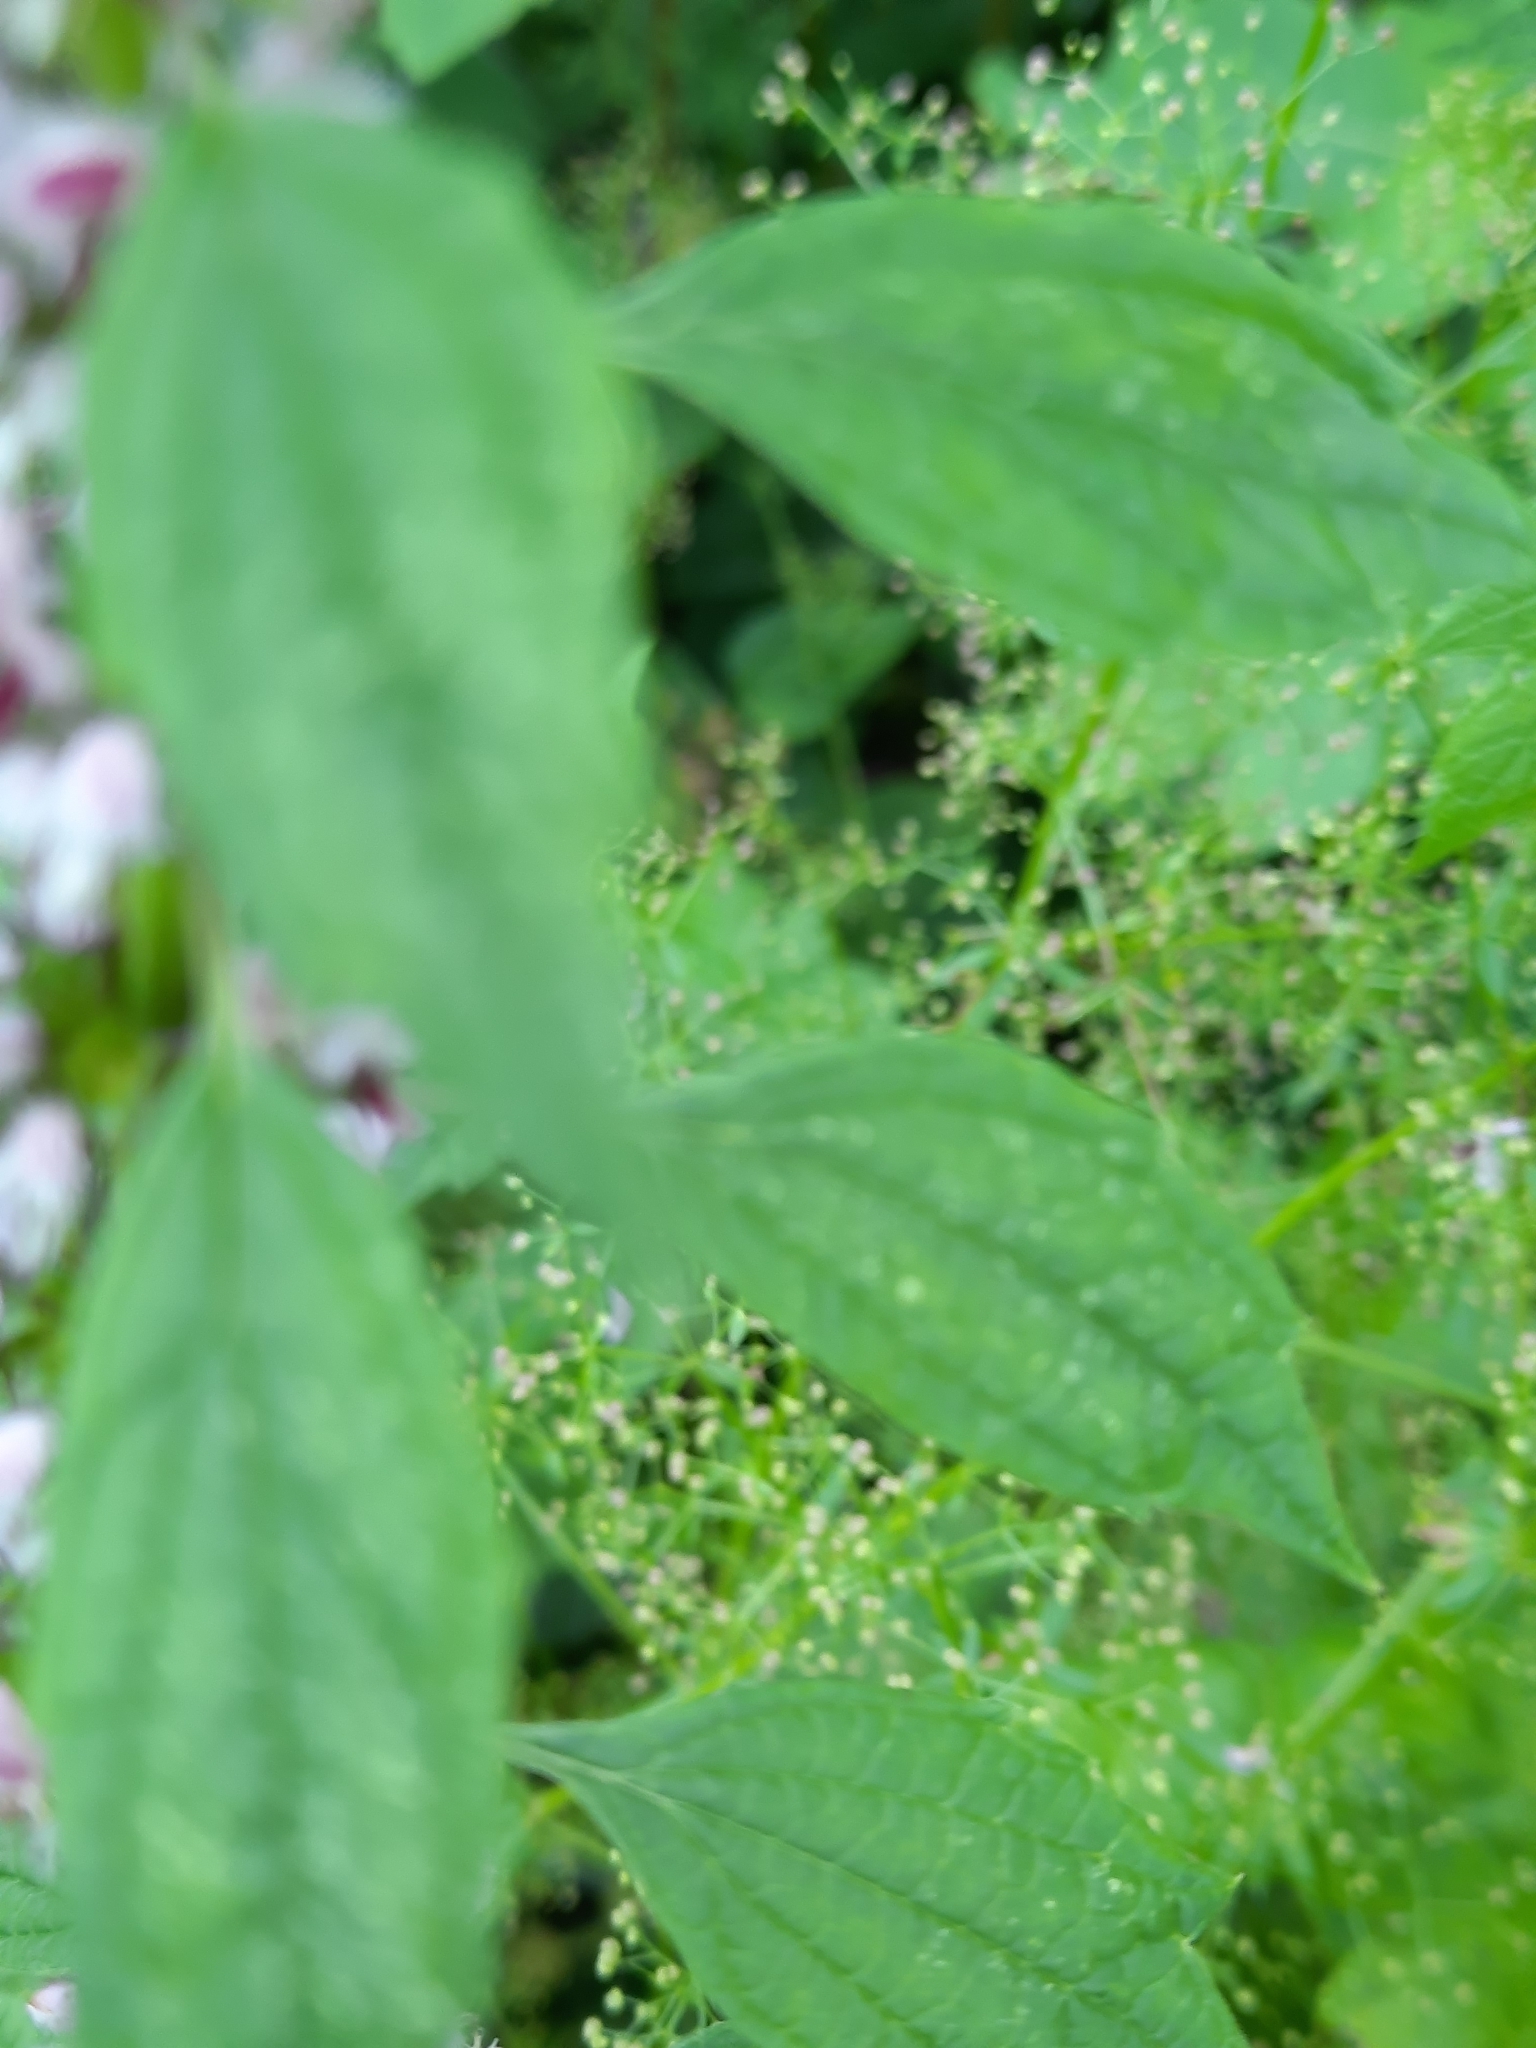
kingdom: Plantae
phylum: Tracheophyta
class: Magnoliopsida
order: Lamiales
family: Lamiaceae
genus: Leonurus
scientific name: Leonurus cardiaca
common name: Motherwort
